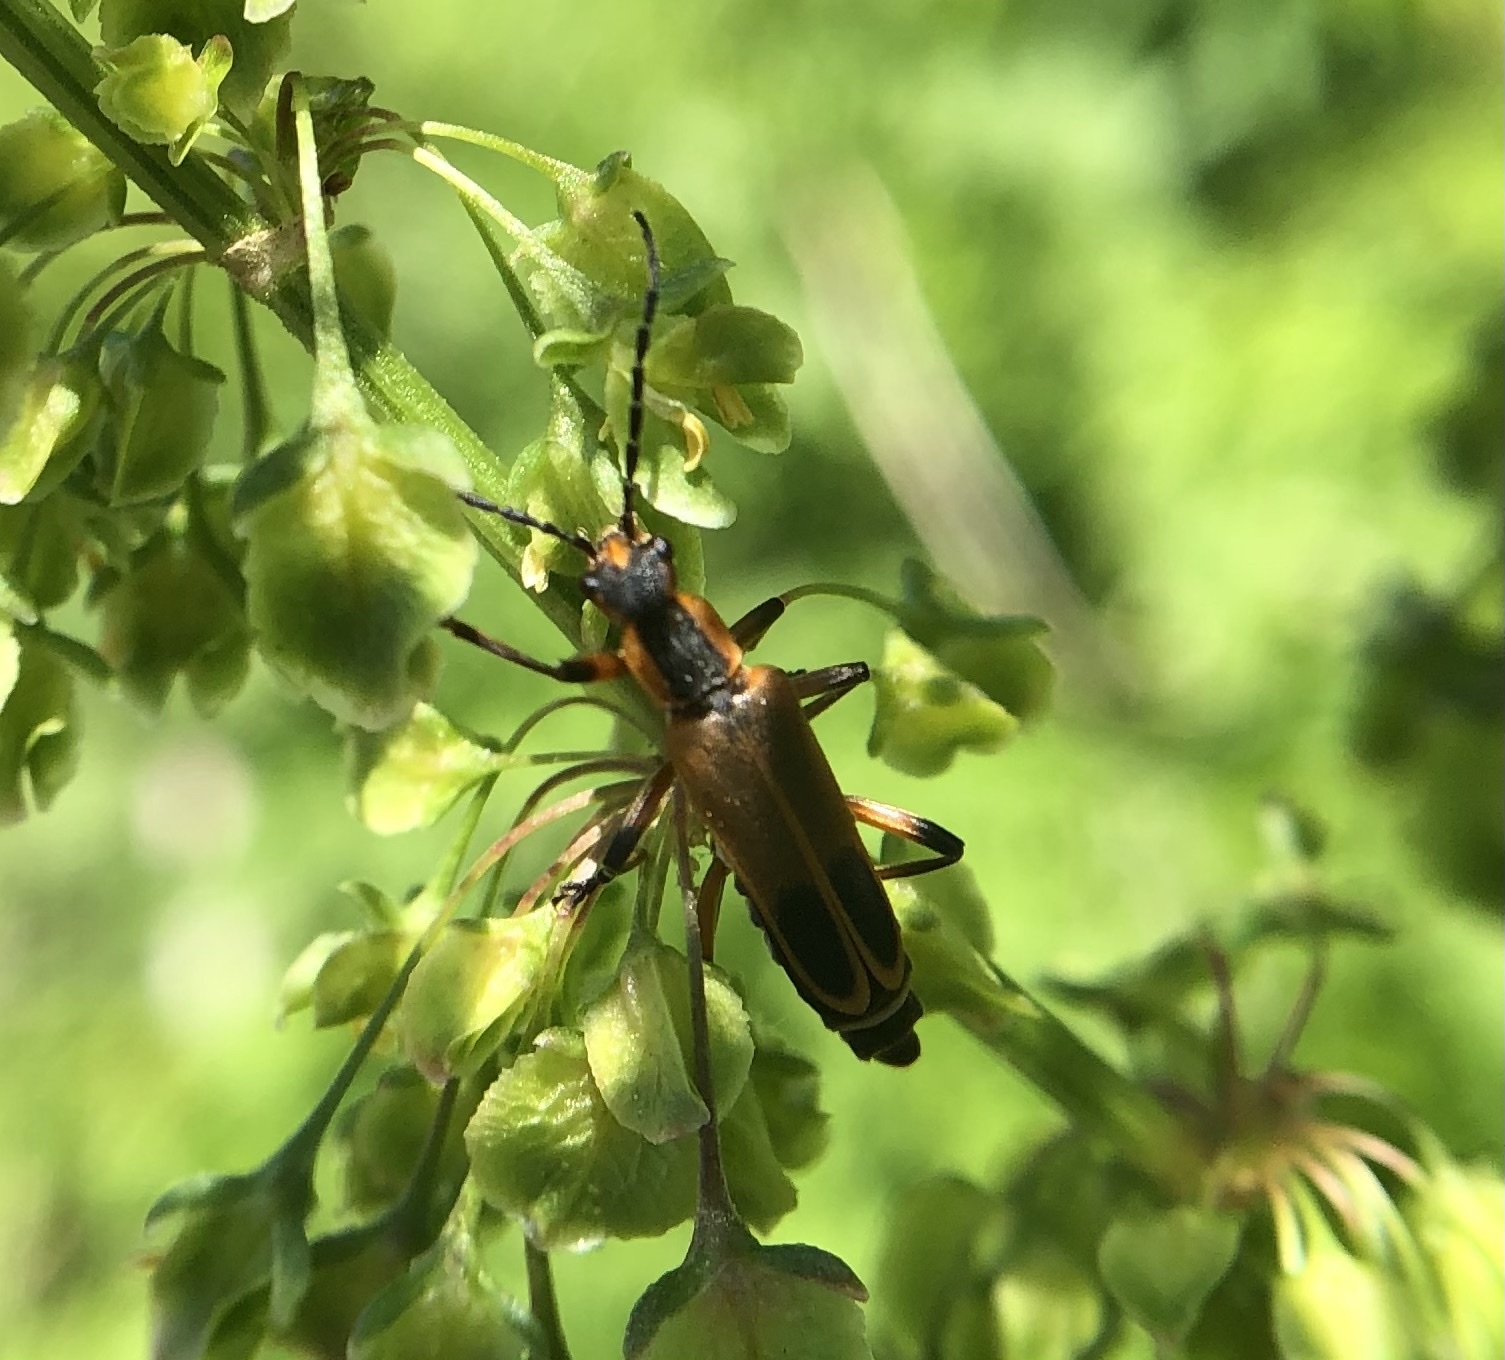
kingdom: Animalia
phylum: Arthropoda
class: Insecta
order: Coleoptera
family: Cantharidae
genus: Chauliognathus
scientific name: Chauliognathus marginatus
